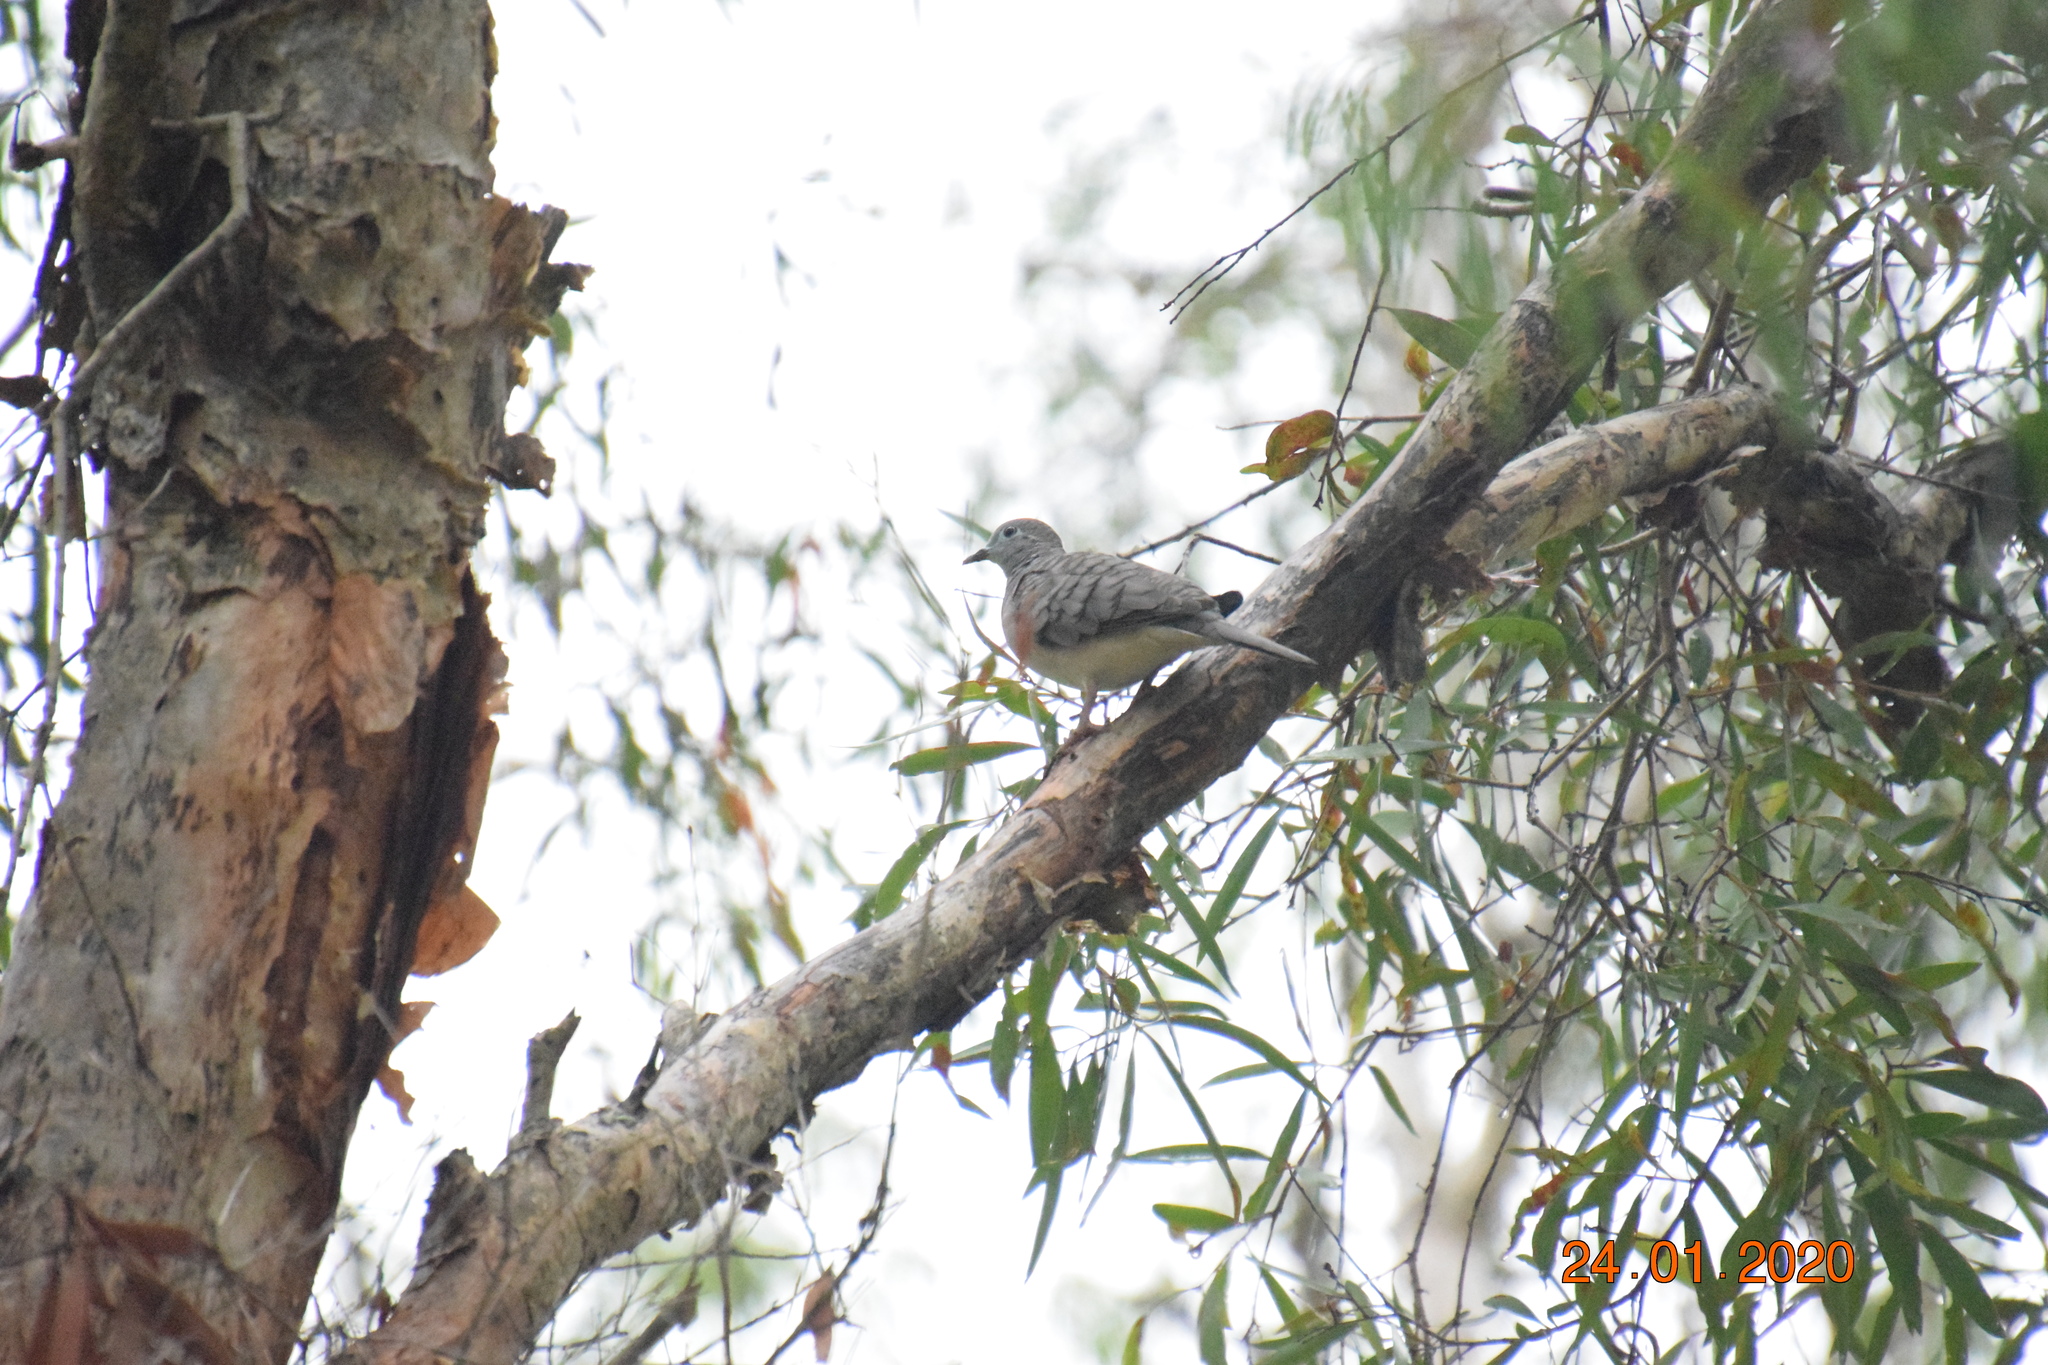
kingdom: Animalia
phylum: Chordata
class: Aves
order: Columbiformes
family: Columbidae
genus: Geopelia
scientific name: Geopelia placida
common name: Peaceful dove
